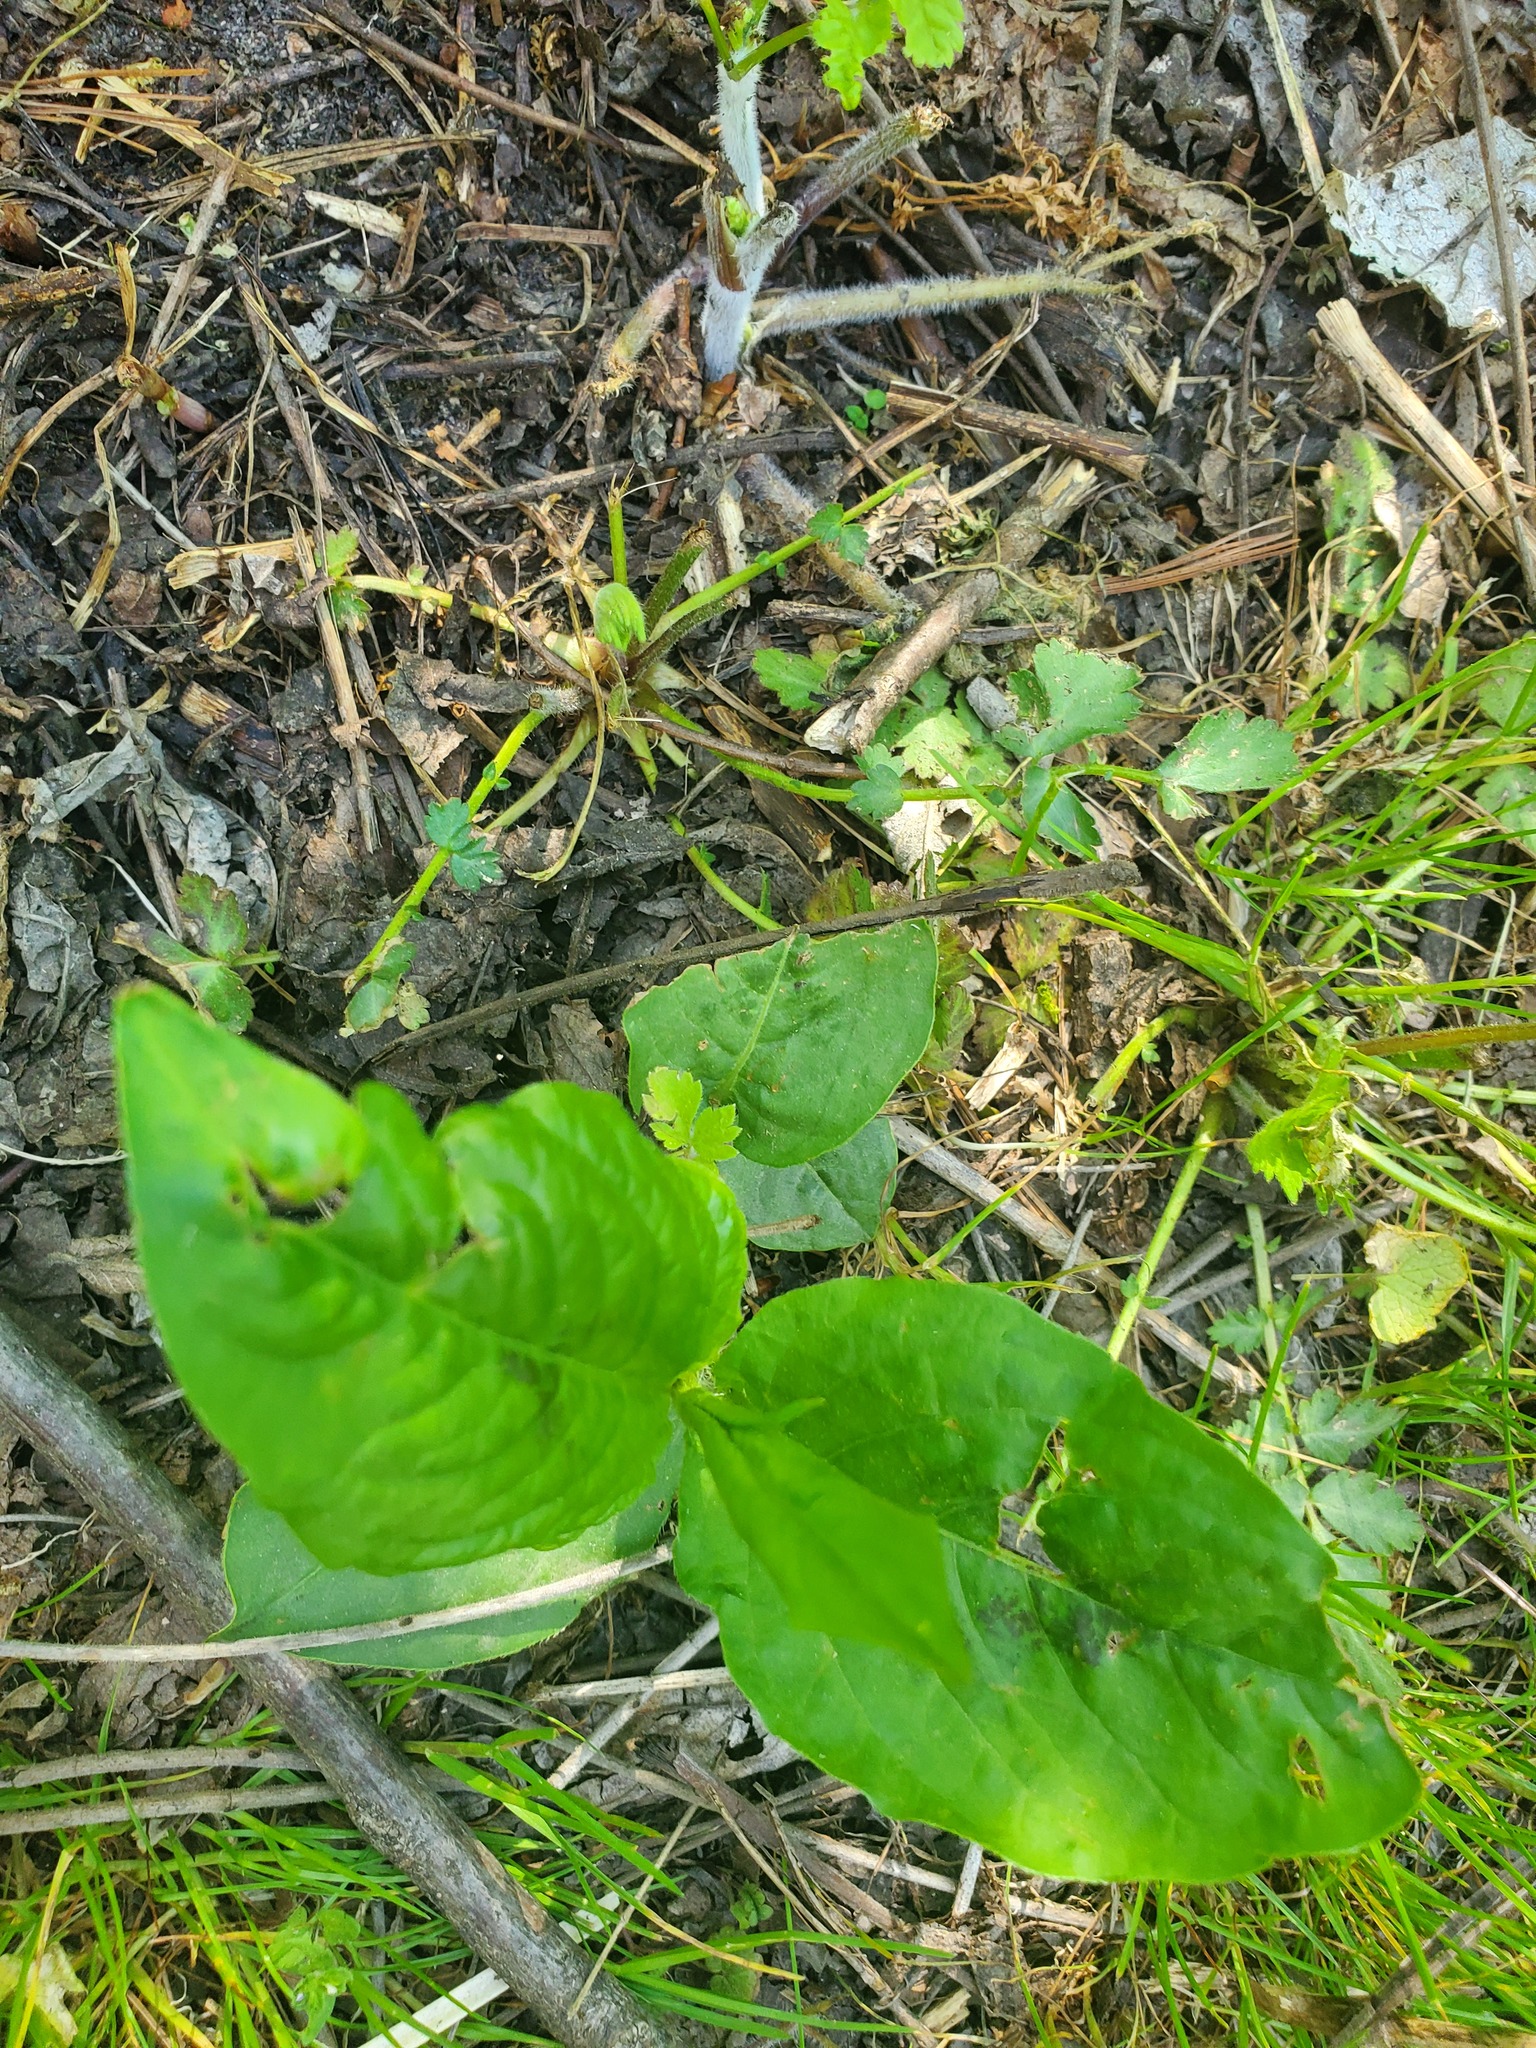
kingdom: Plantae
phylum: Tracheophyta
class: Magnoliopsida
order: Caryophyllales
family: Polygonaceae
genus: Persicaria
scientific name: Persicaria virginiana
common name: Jumpseed
